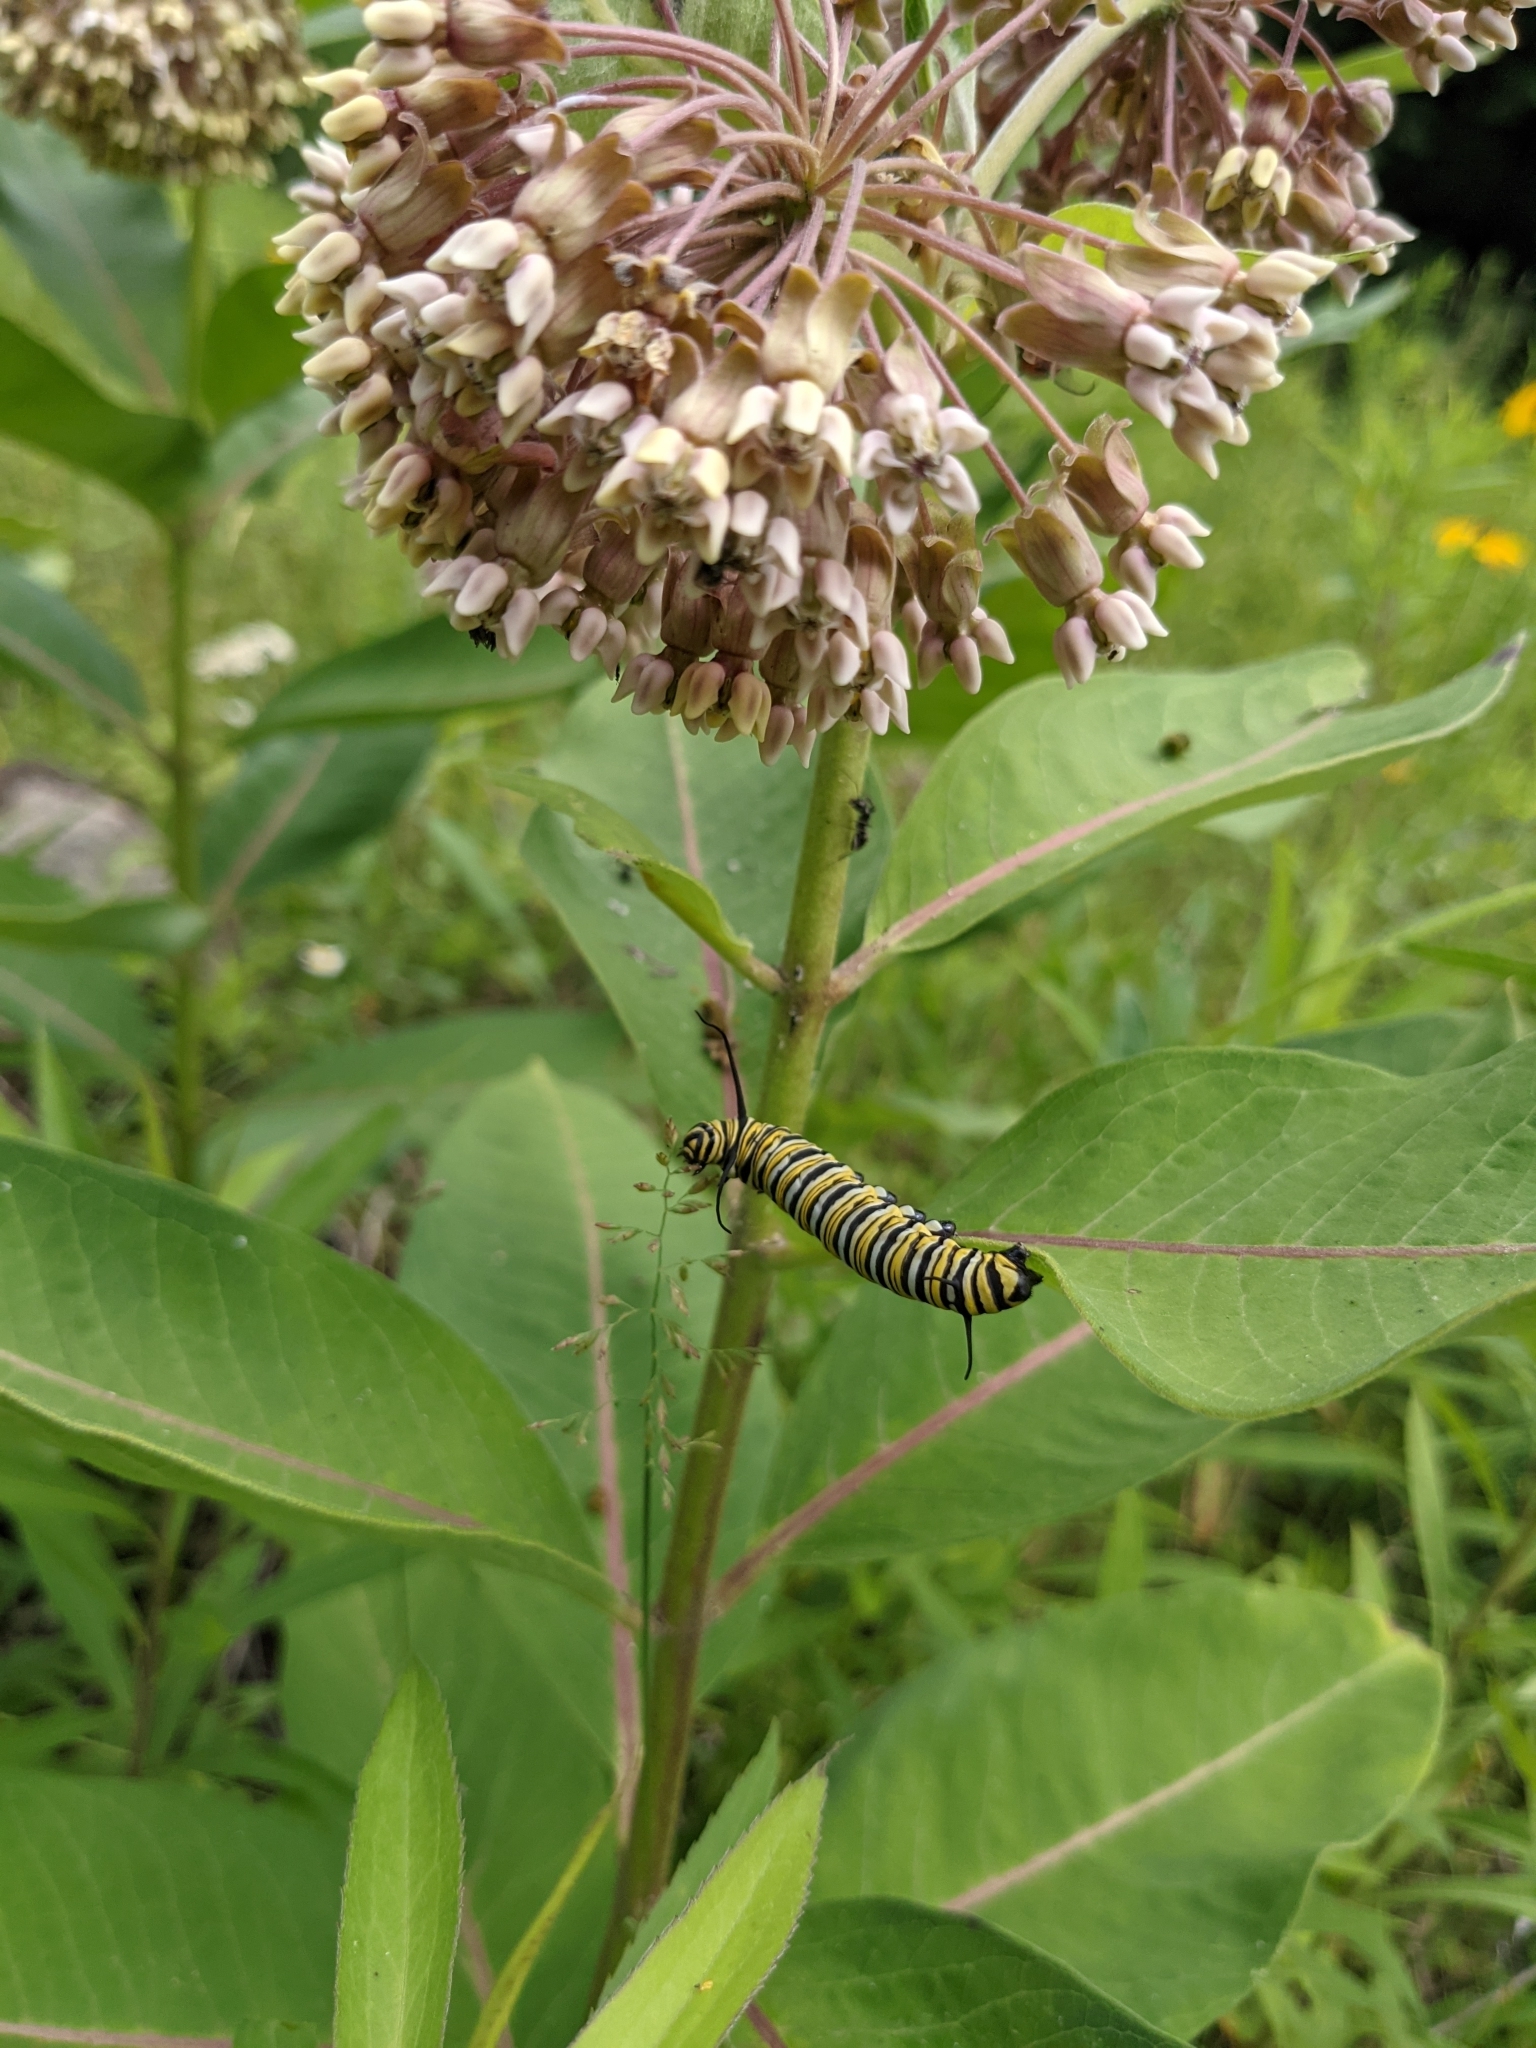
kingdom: Animalia
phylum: Arthropoda
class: Insecta
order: Lepidoptera
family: Nymphalidae
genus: Danaus
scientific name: Danaus plexippus
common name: Monarch
